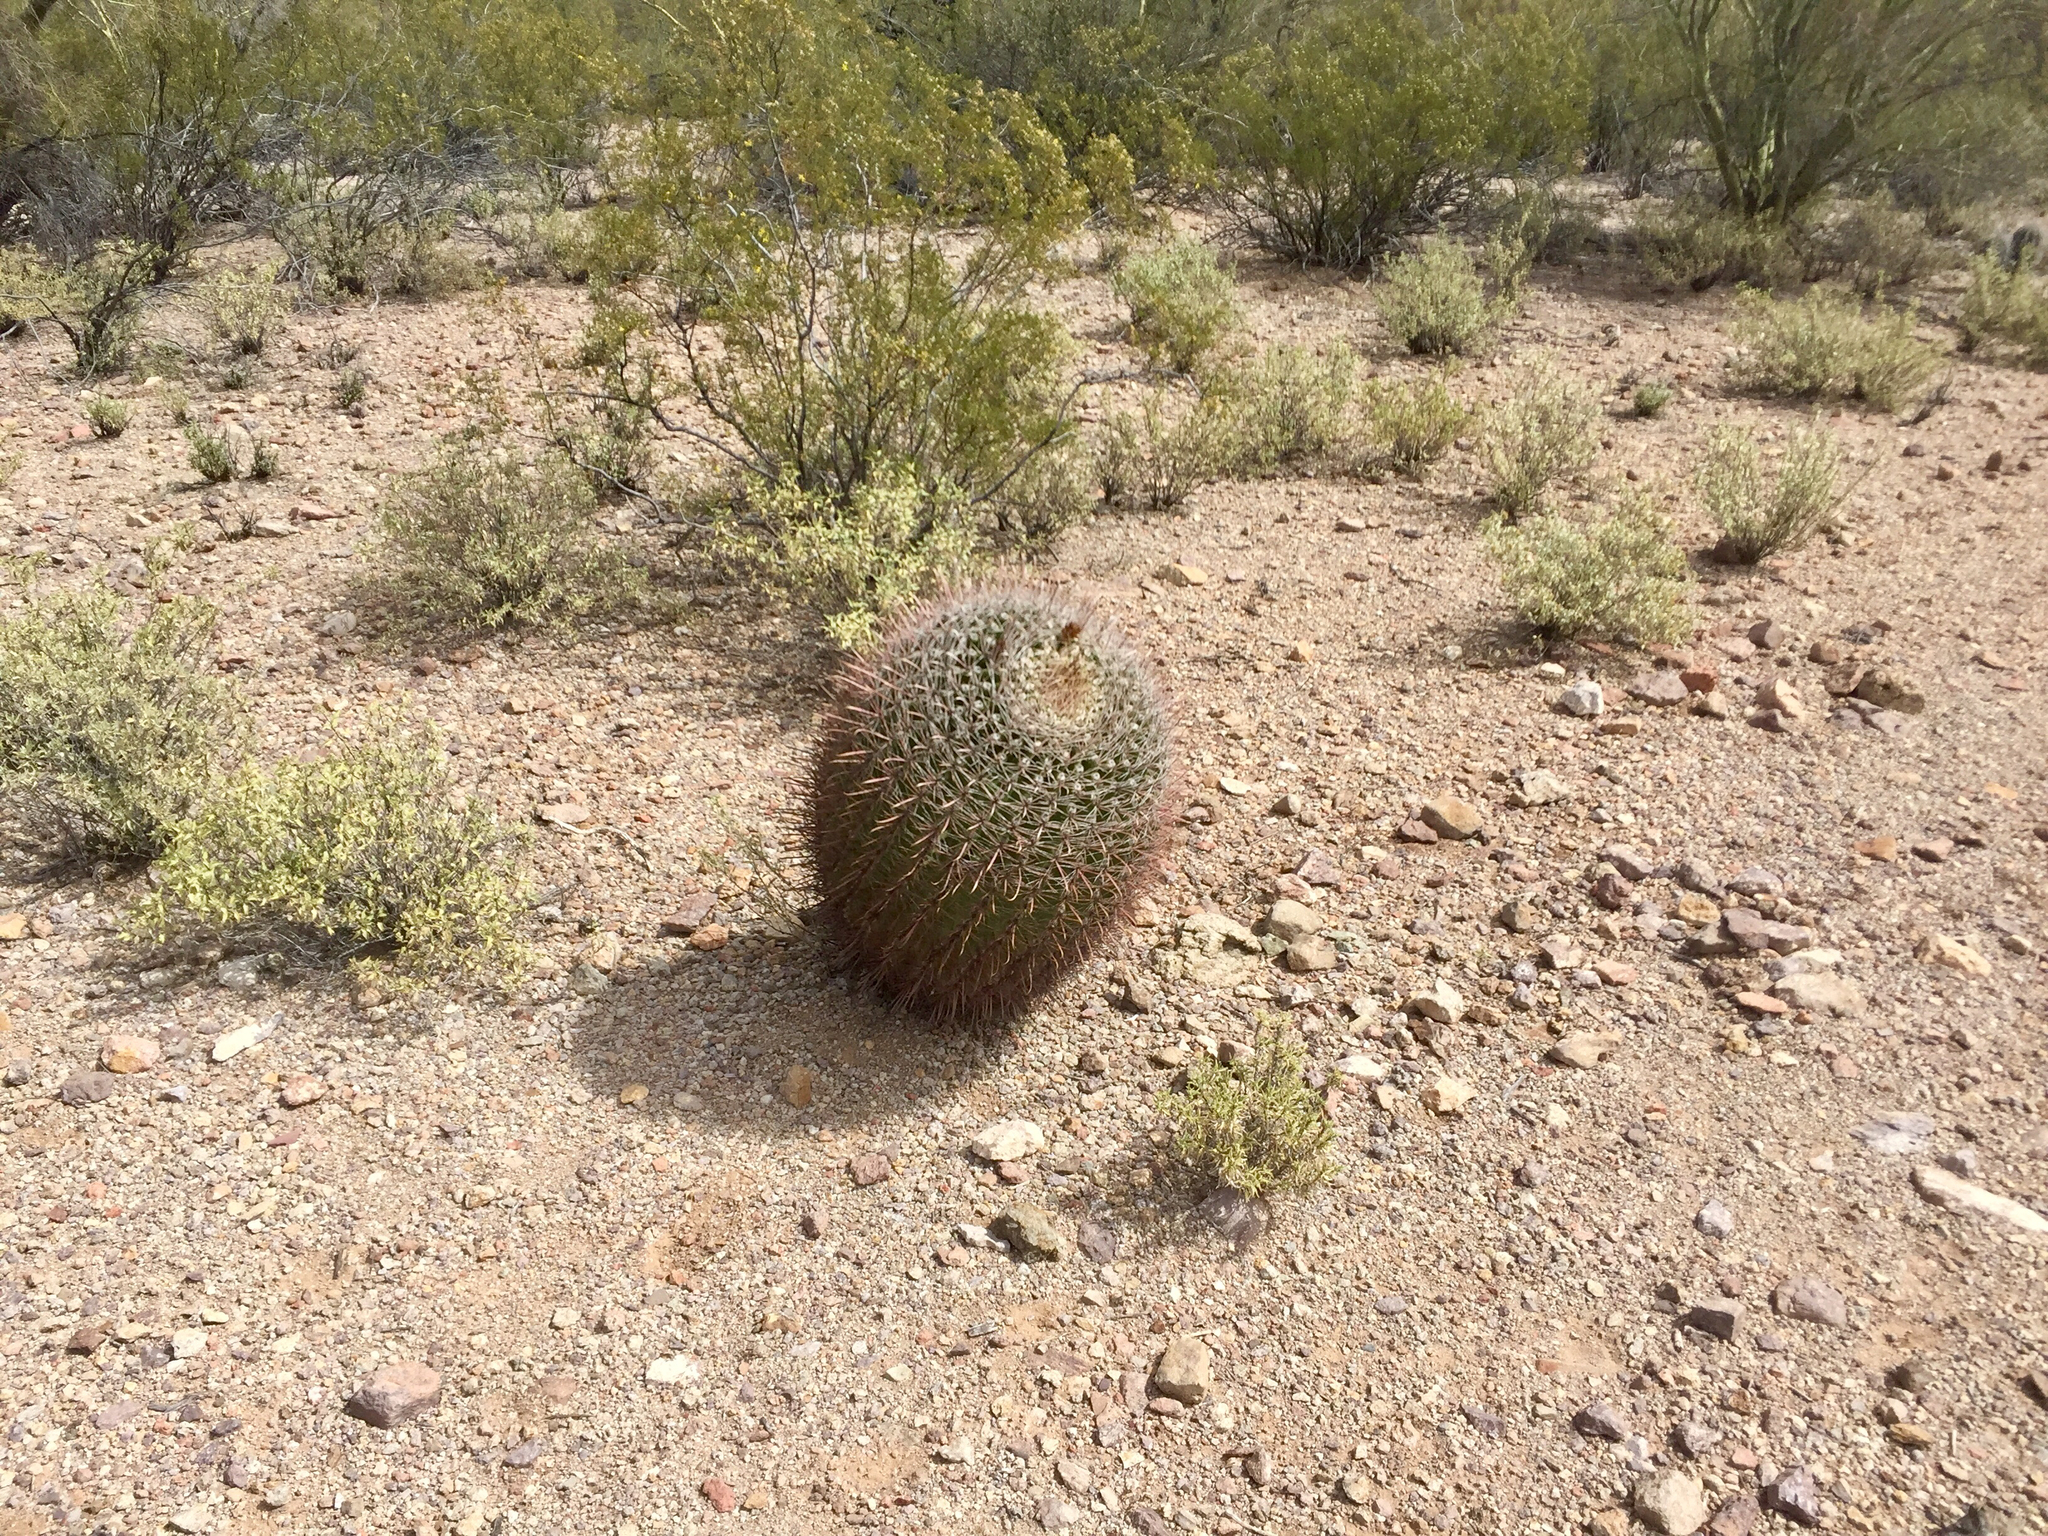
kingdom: Plantae
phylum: Tracheophyta
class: Magnoliopsida
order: Caryophyllales
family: Cactaceae
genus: Ferocactus
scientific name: Ferocactus wislizeni
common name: Candy barrel cactus
